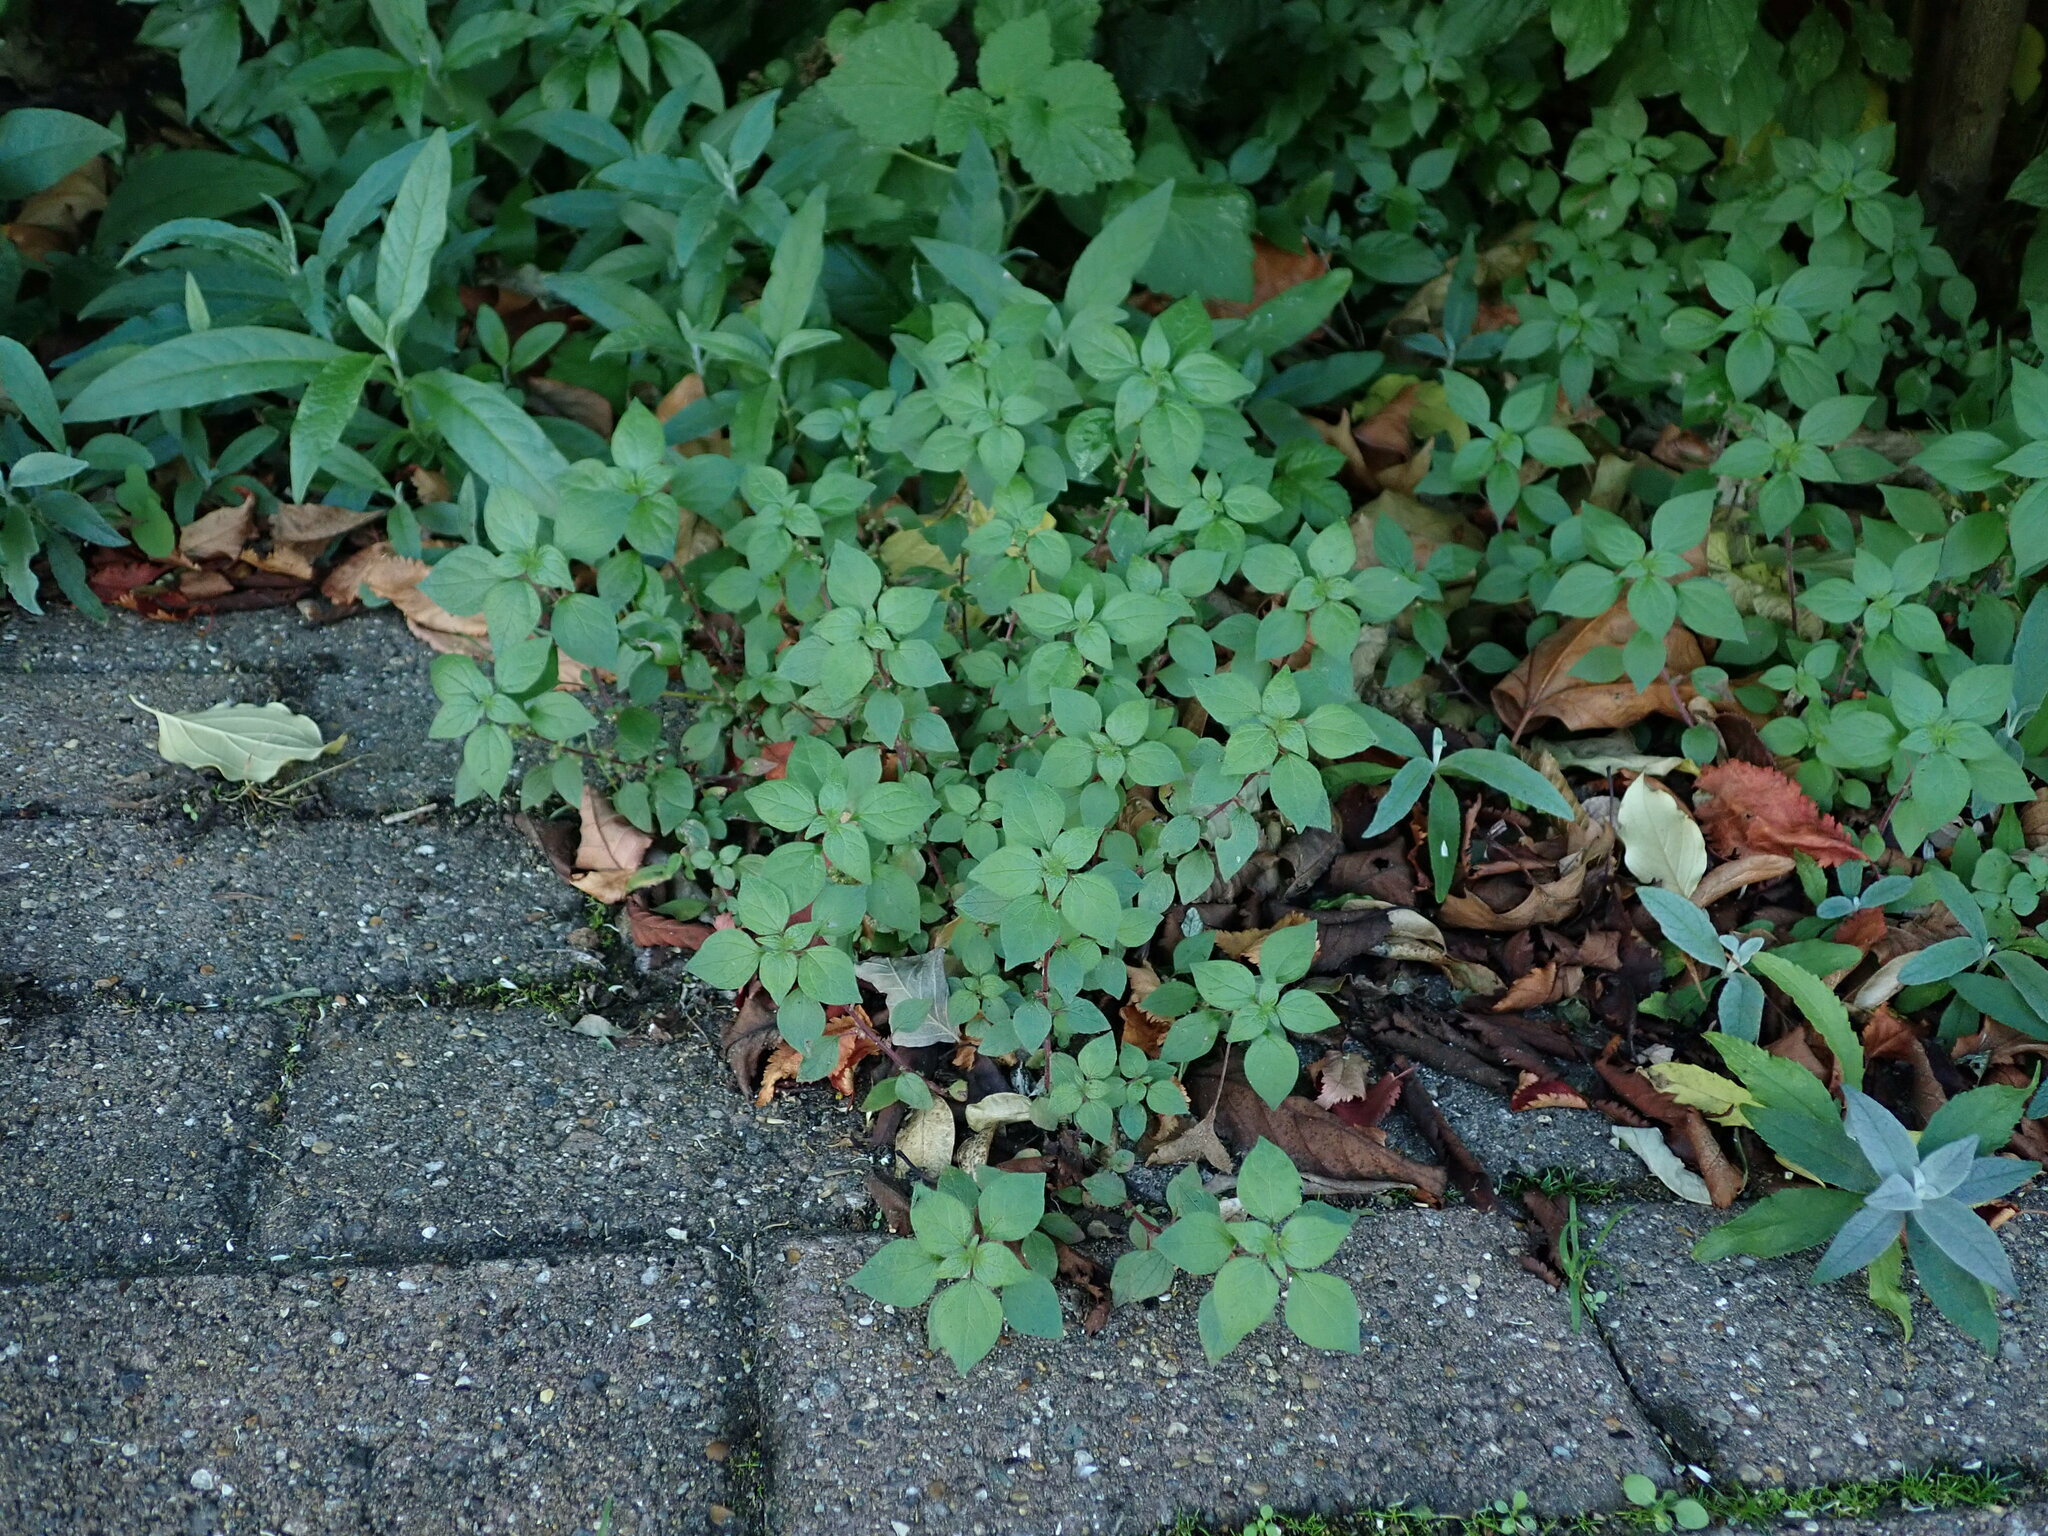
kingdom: Plantae
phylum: Tracheophyta
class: Magnoliopsida
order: Rosales
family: Urticaceae
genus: Parietaria
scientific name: Parietaria judaica
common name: Pellitory-of-the-wall
